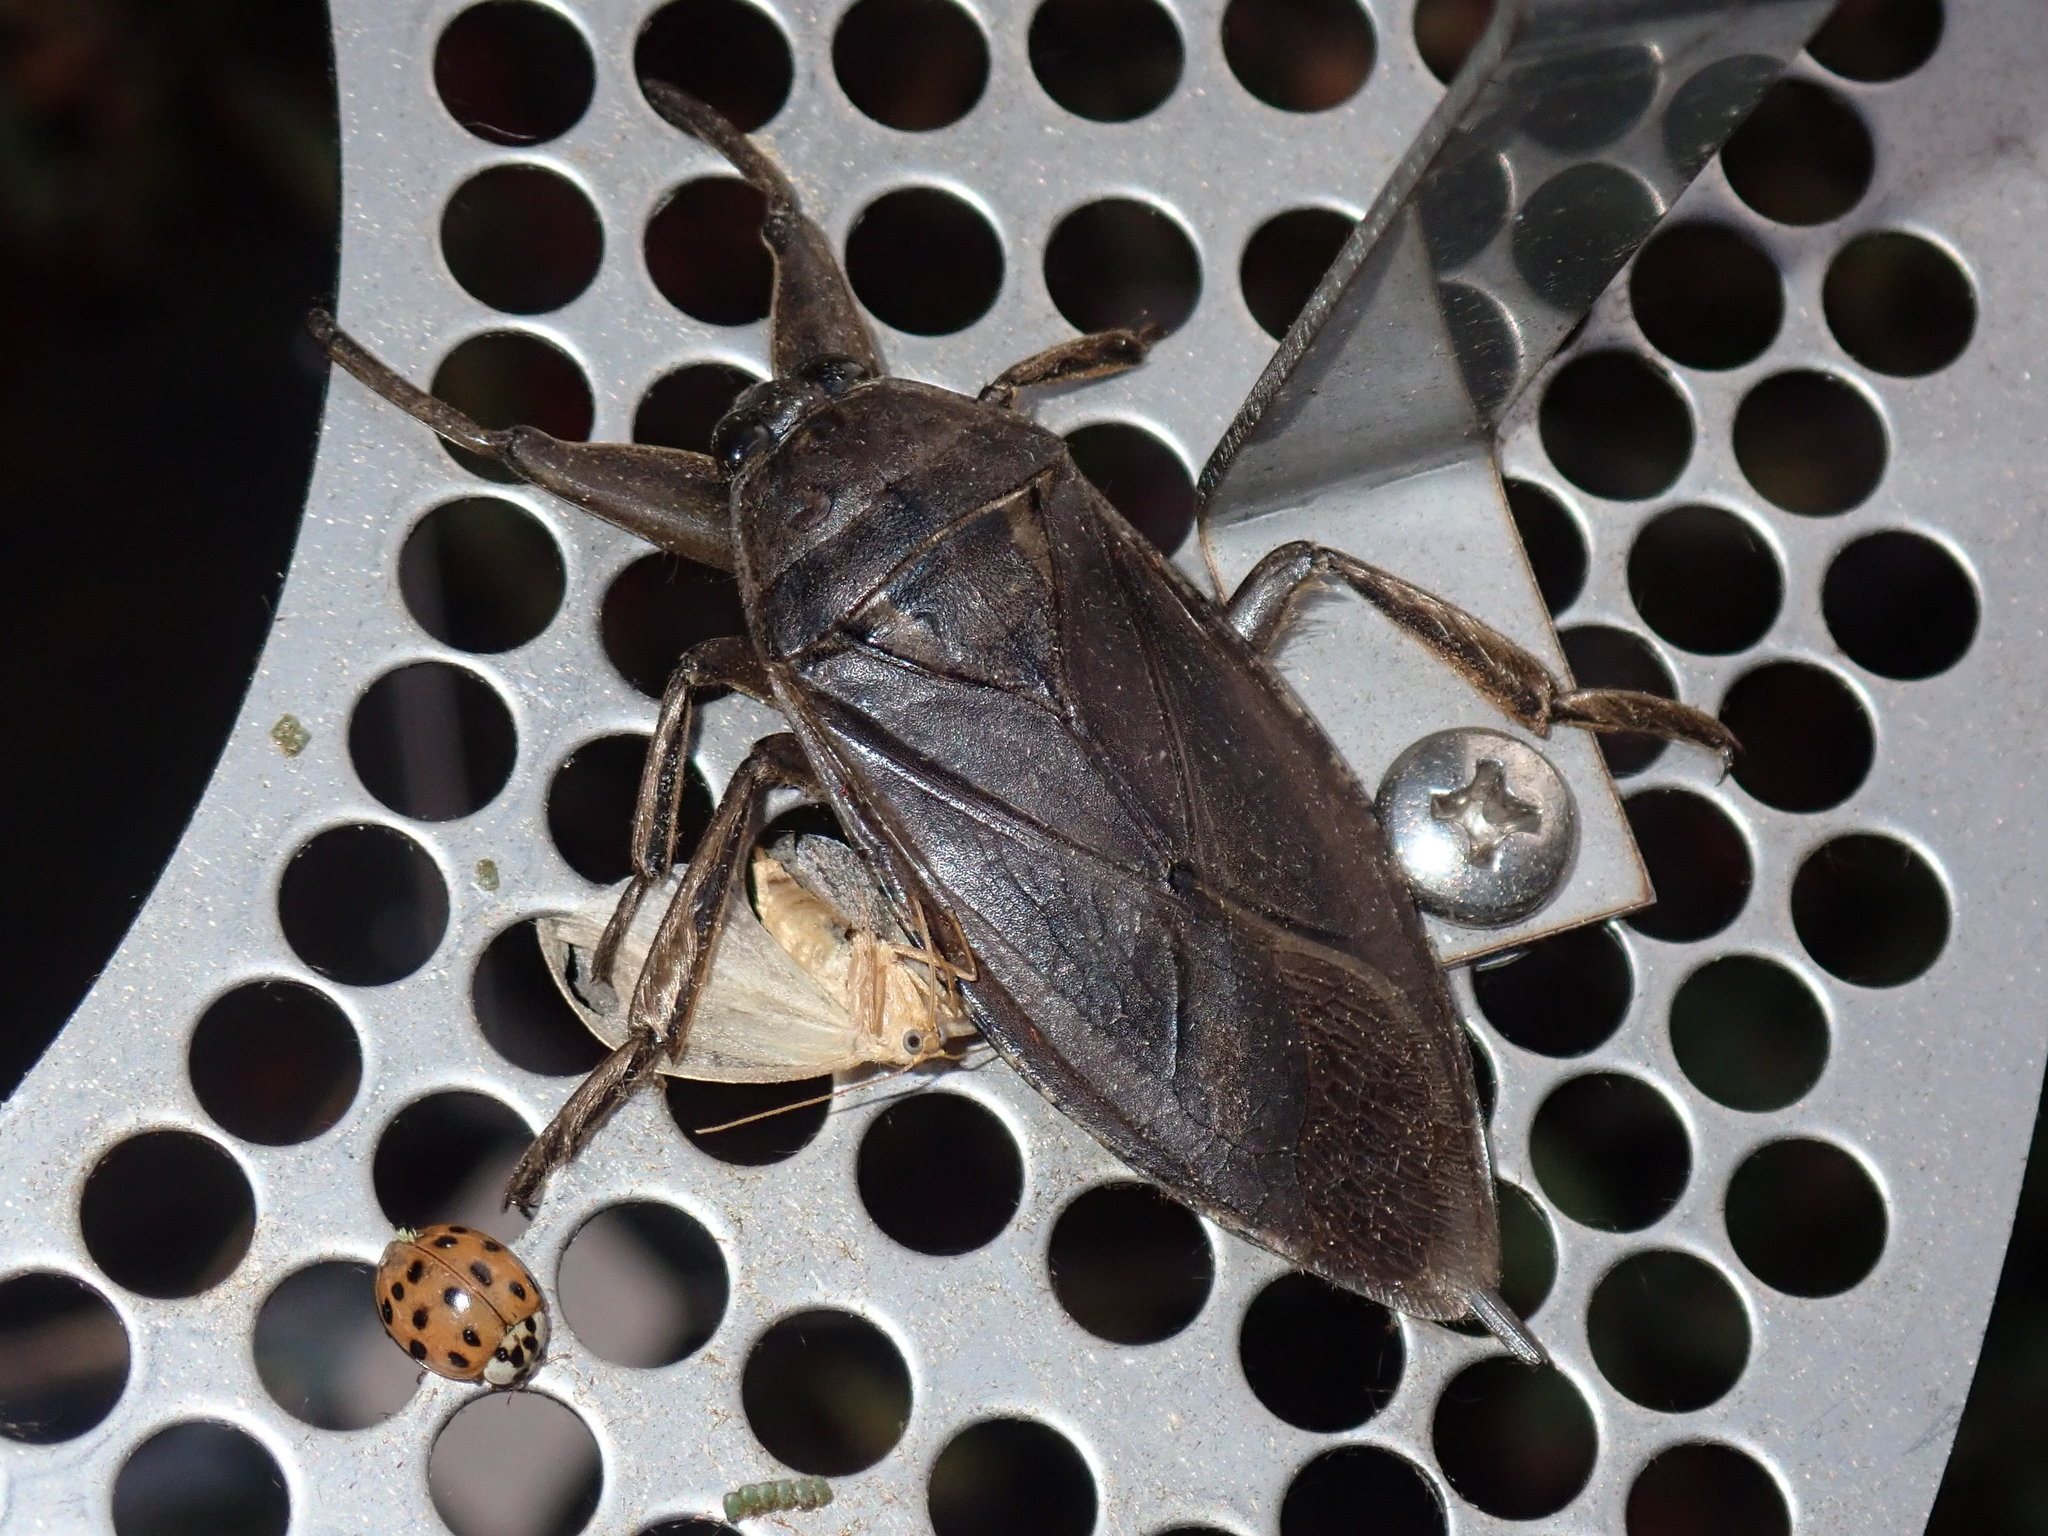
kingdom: Animalia
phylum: Arthropoda
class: Insecta
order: Hemiptera
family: Belostomatidae
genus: Lethocerus
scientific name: Lethocerus americanus
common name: Giant water bug
